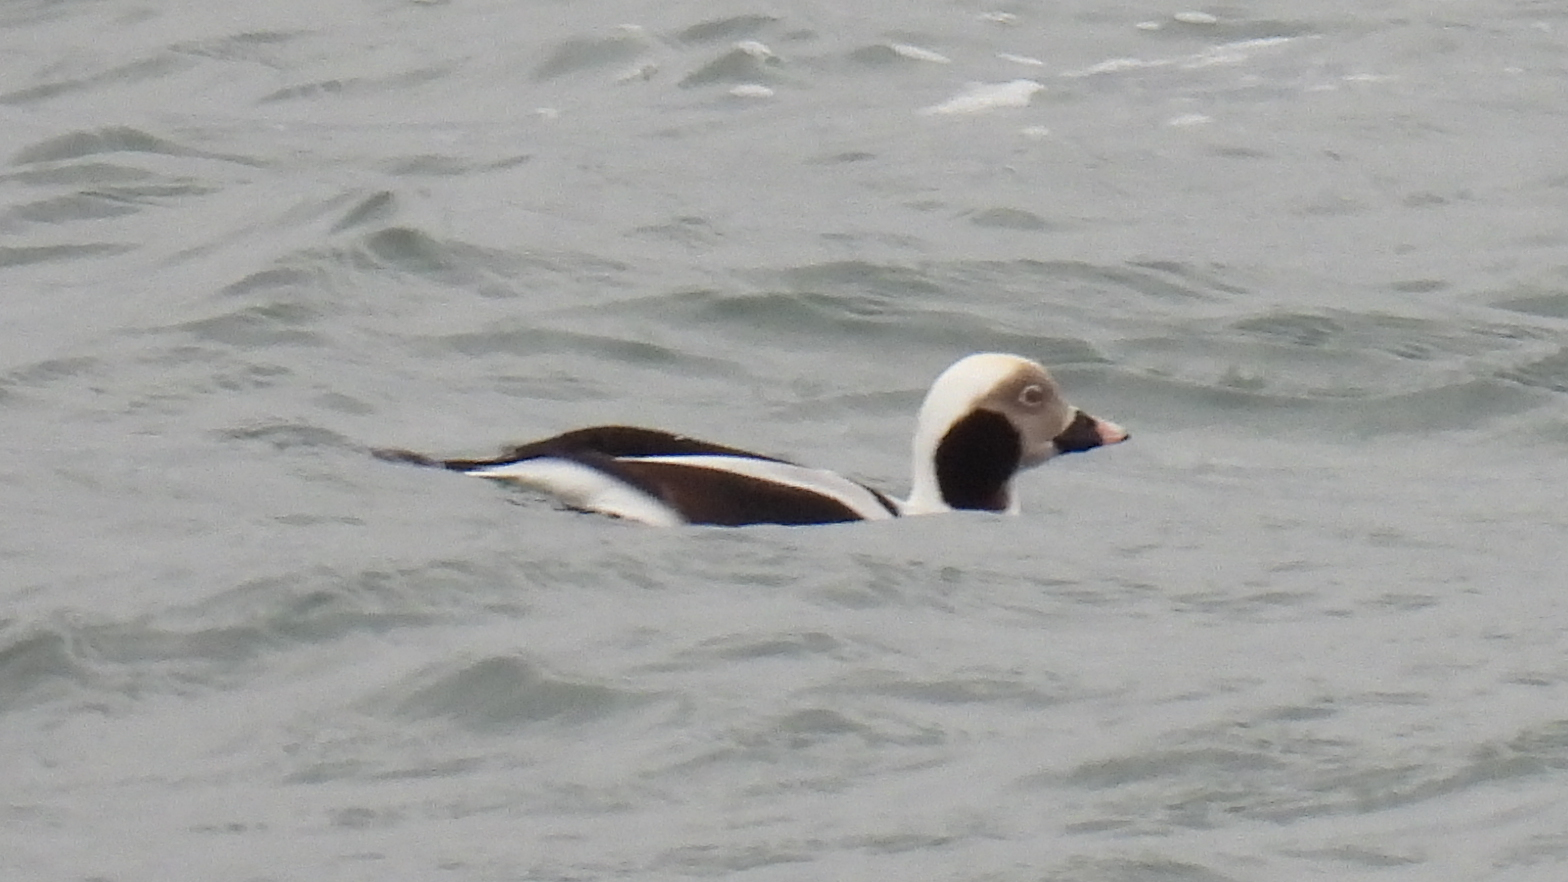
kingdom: Animalia
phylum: Chordata
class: Aves
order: Anseriformes
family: Anatidae
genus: Clangula
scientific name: Clangula hyemalis
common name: Long-tailed duck
